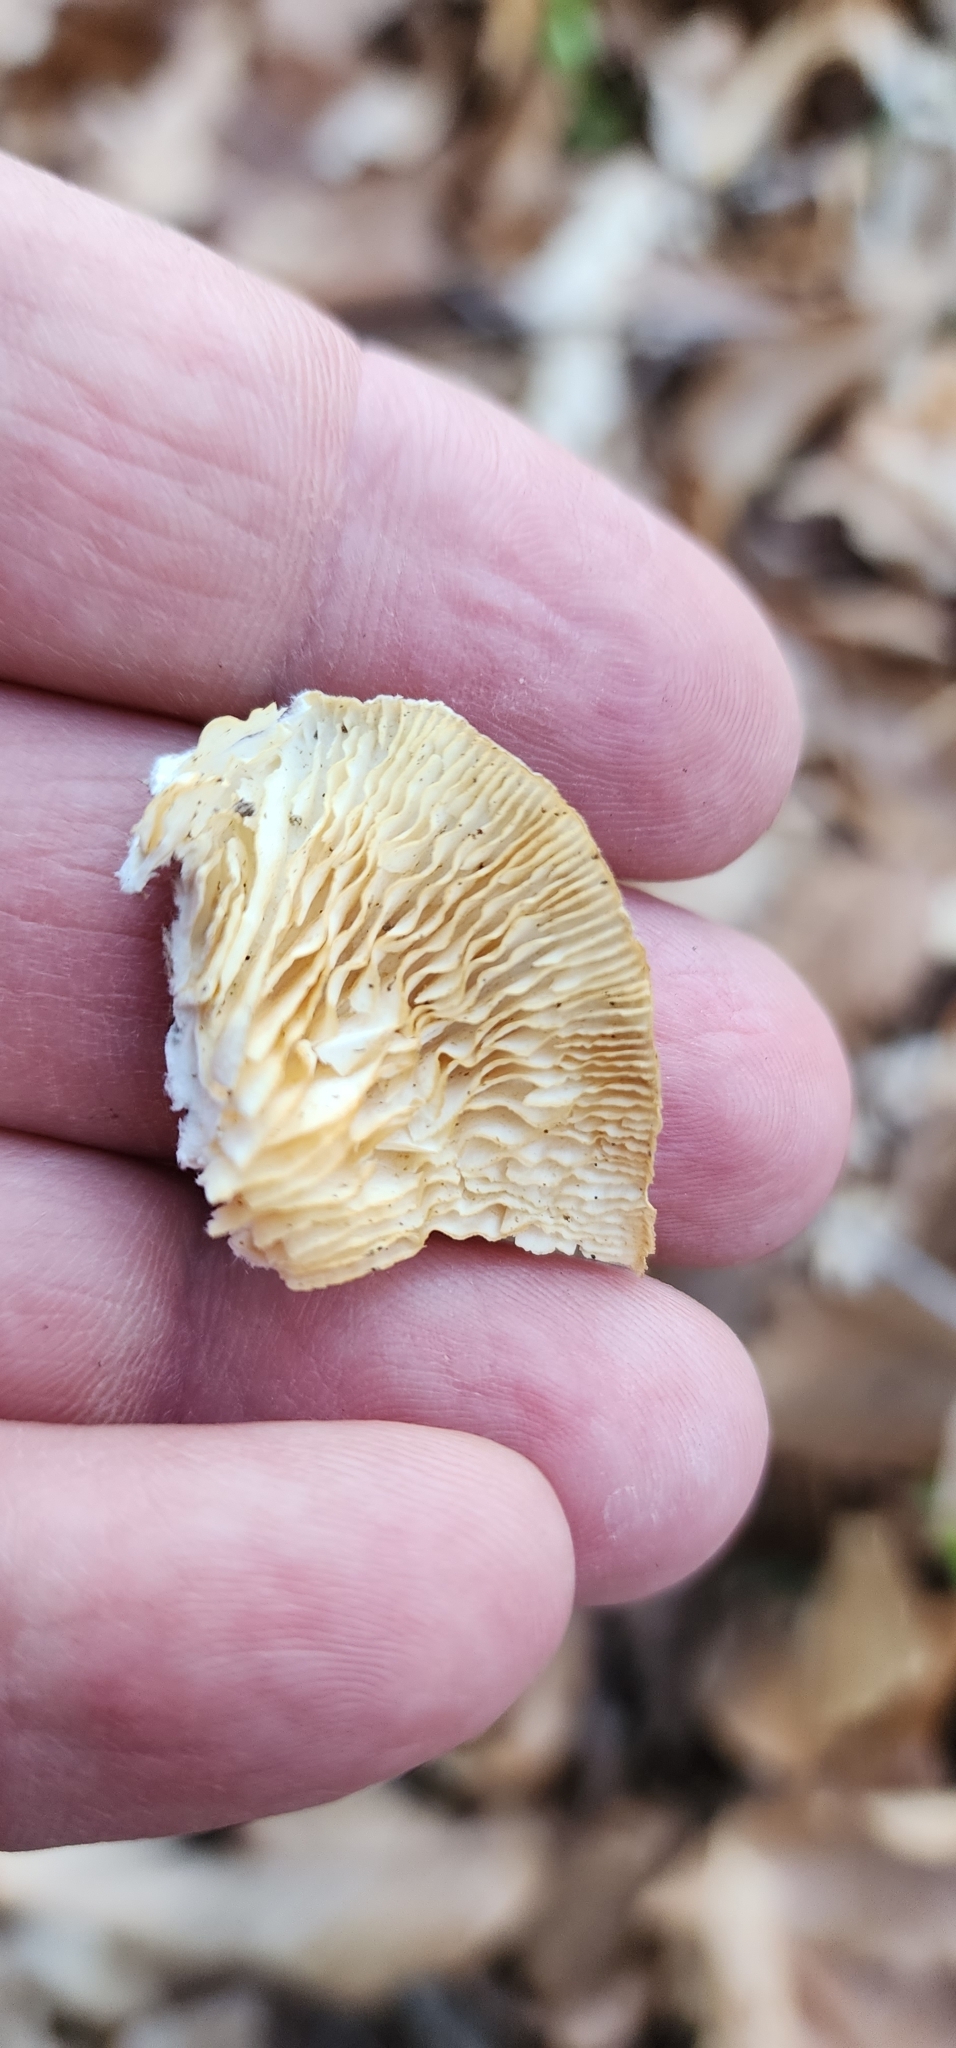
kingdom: Fungi
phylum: Basidiomycota
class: Agaricomycetes
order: Polyporales
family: Polyporaceae
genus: Lenzites
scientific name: Lenzites betulinus
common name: Birch mazegill
